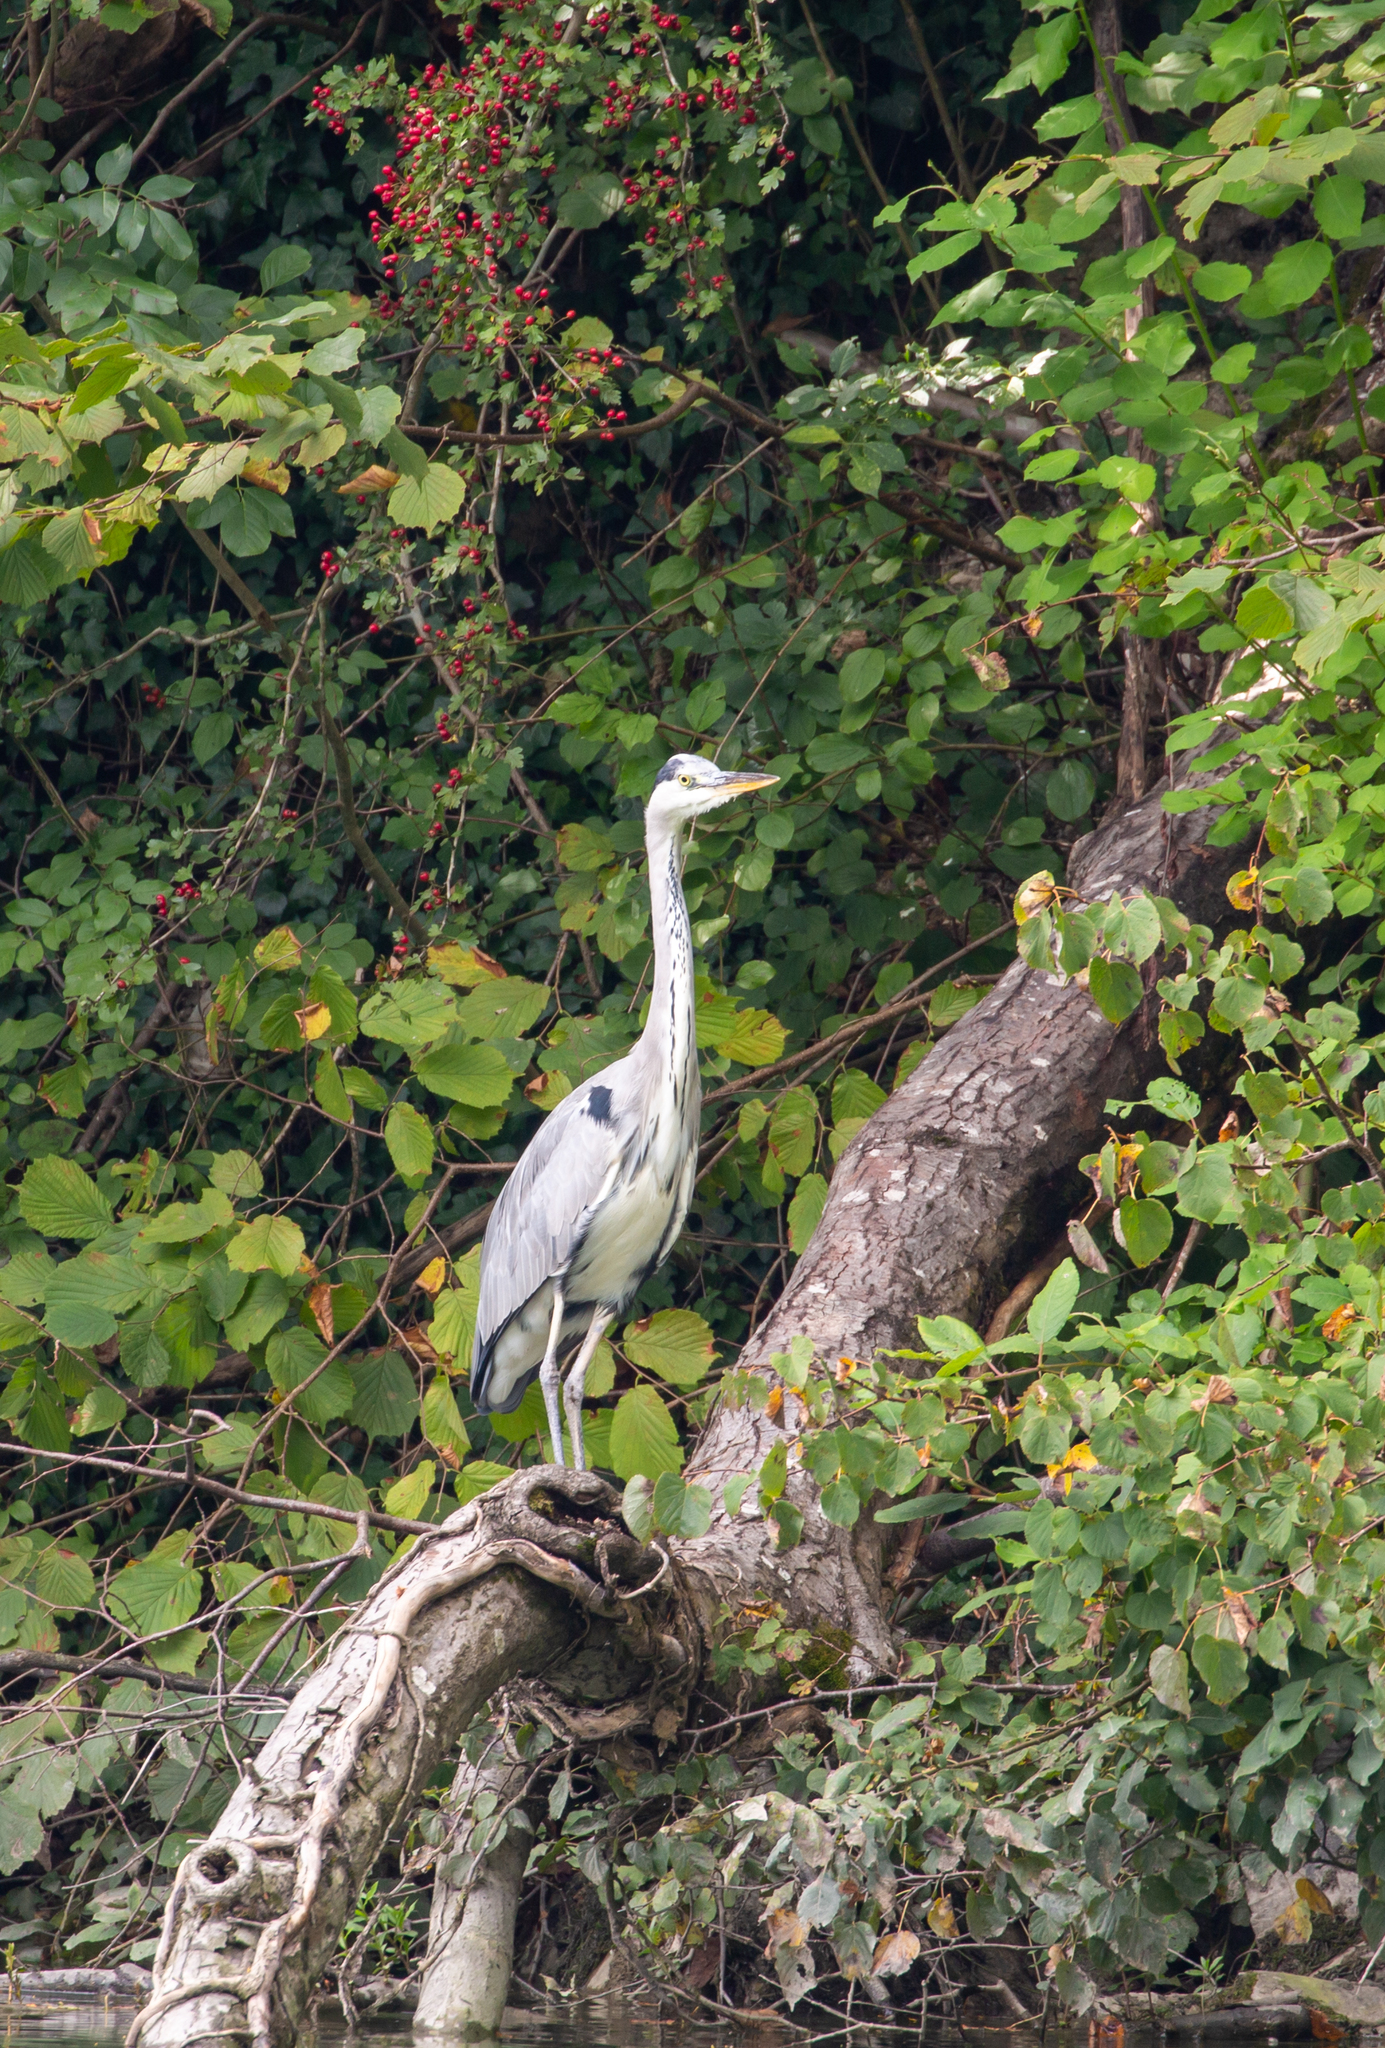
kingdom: Animalia
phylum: Chordata
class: Aves
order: Pelecaniformes
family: Ardeidae
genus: Ardea
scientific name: Ardea cinerea
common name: Grey heron
